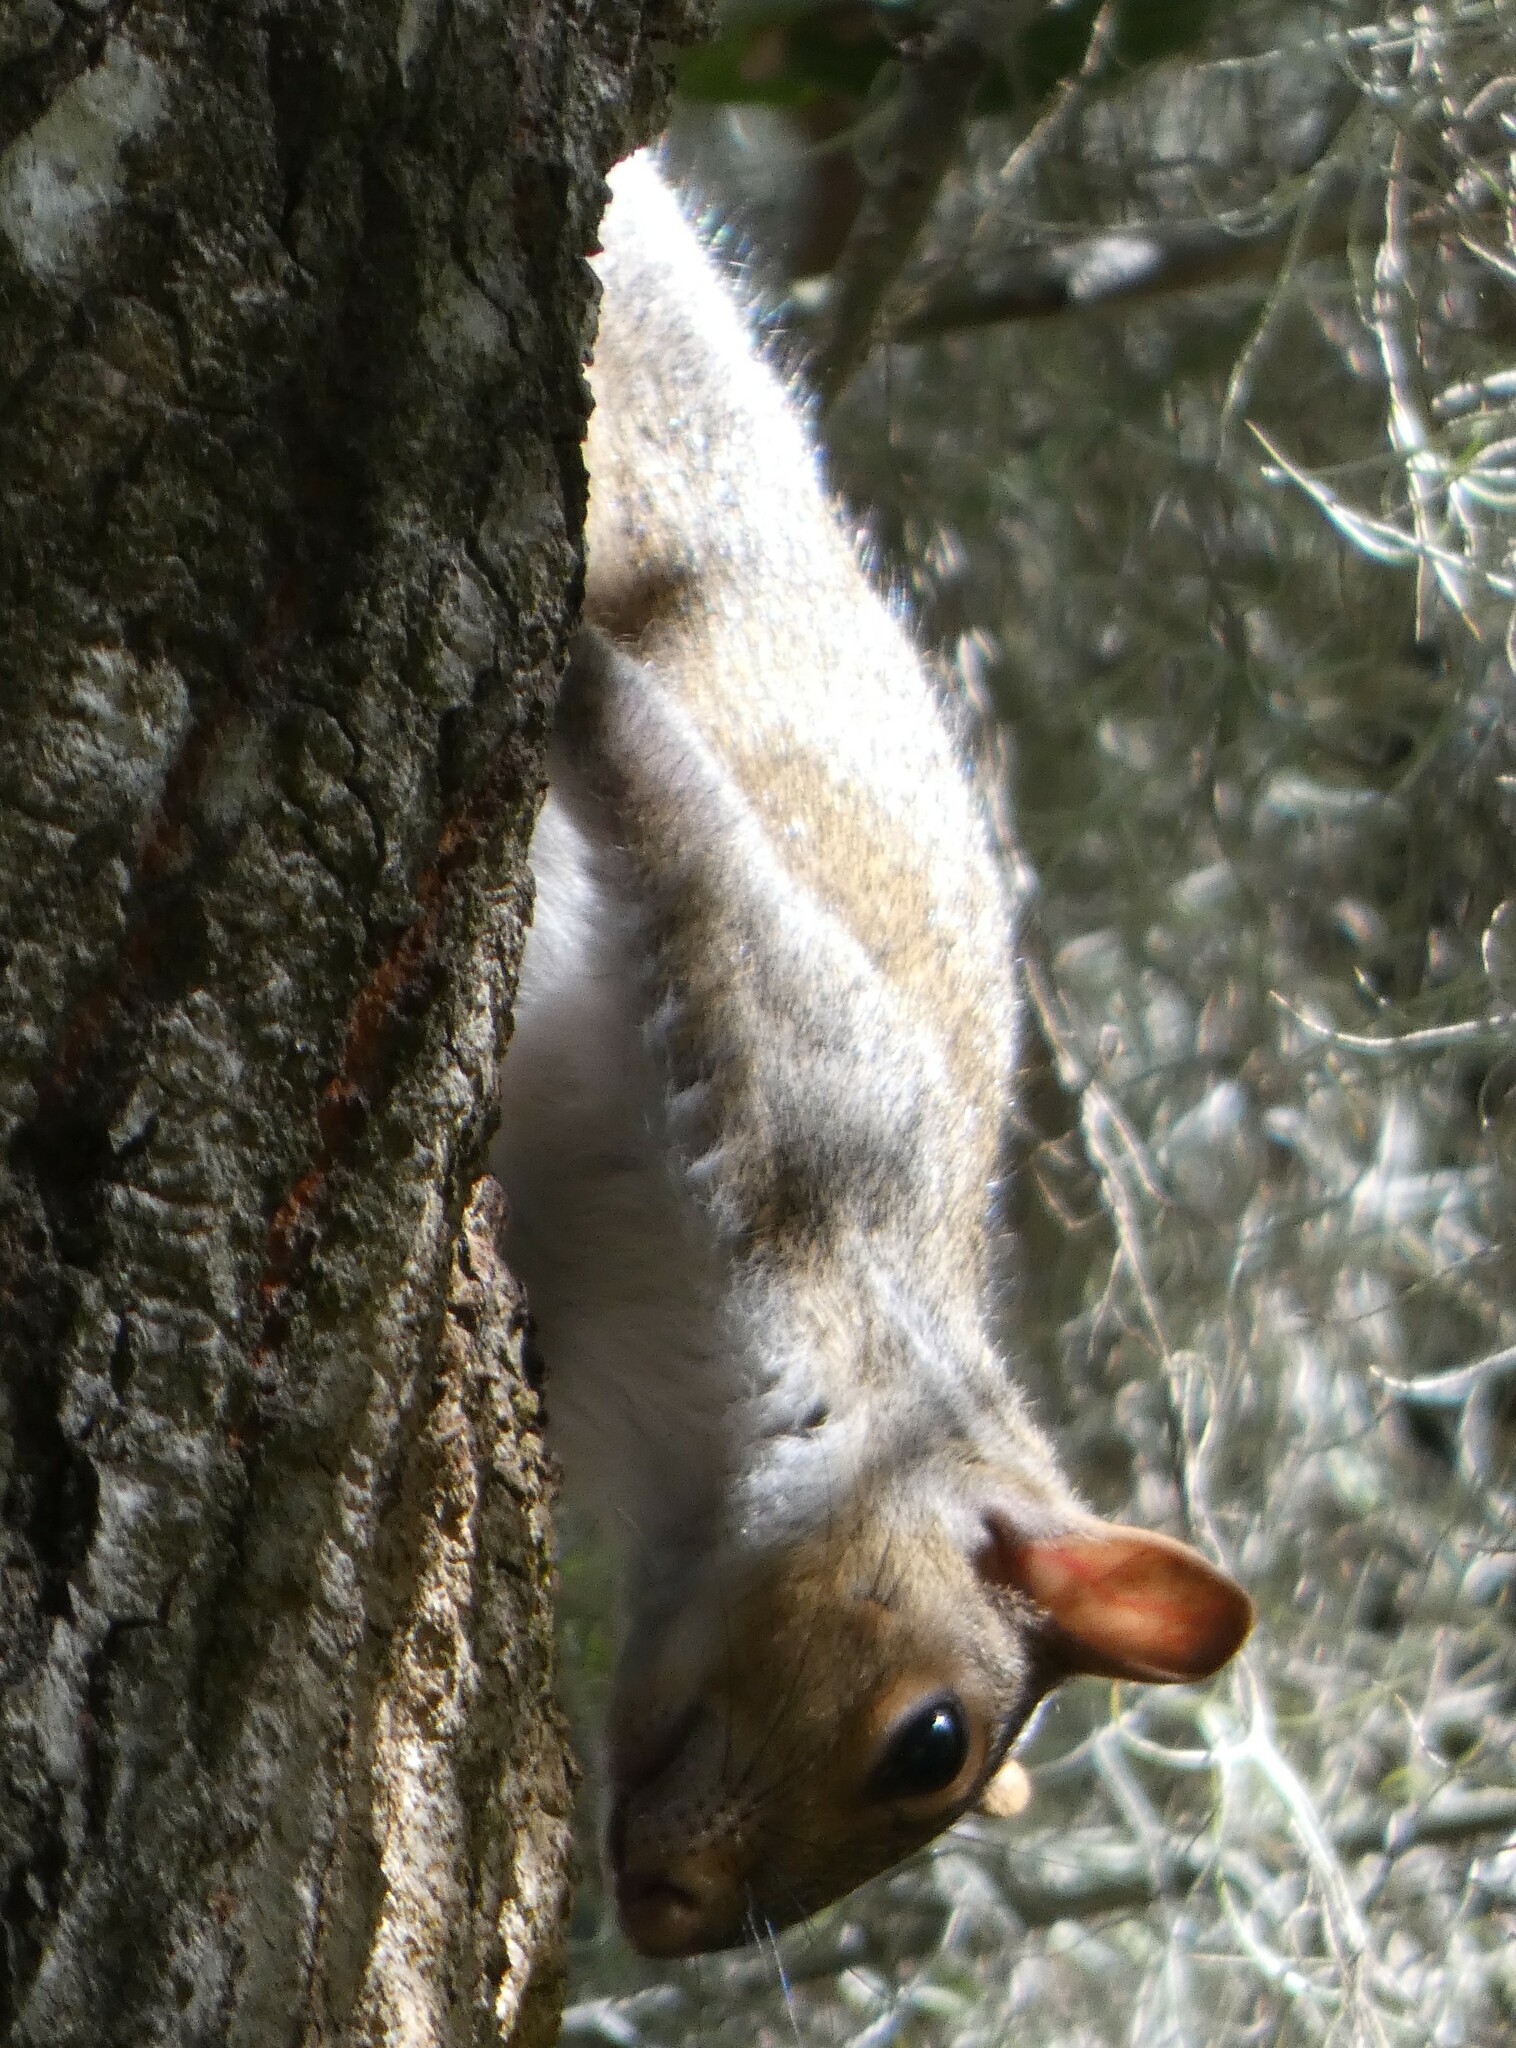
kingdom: Animalia
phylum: Chordata
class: Mammalia
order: Rodentia
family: Sciuridae
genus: Sciurus
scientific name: Sciurus carolinensis
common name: Eastern gray squirrel
